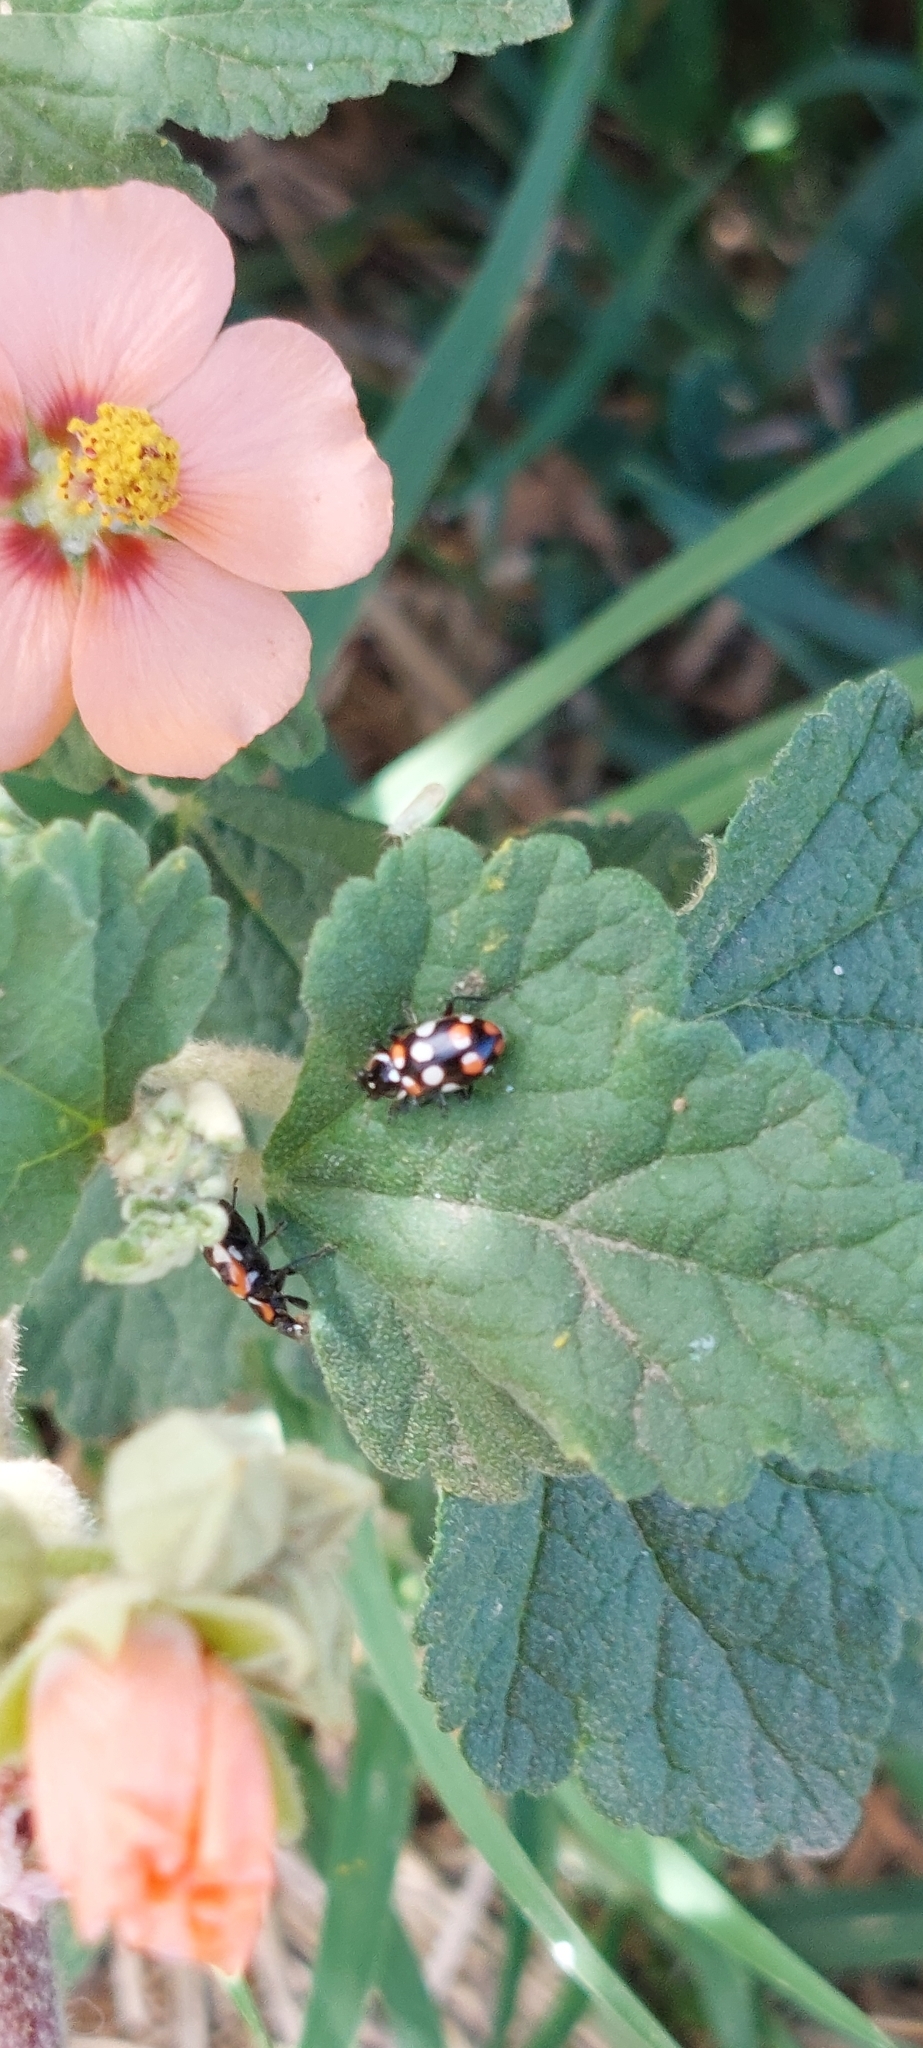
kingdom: Animalia
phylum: Arthropoda
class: Insecta
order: Coleoptera
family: Coccinellidae
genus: Eriopis
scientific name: Eriopis connexa
